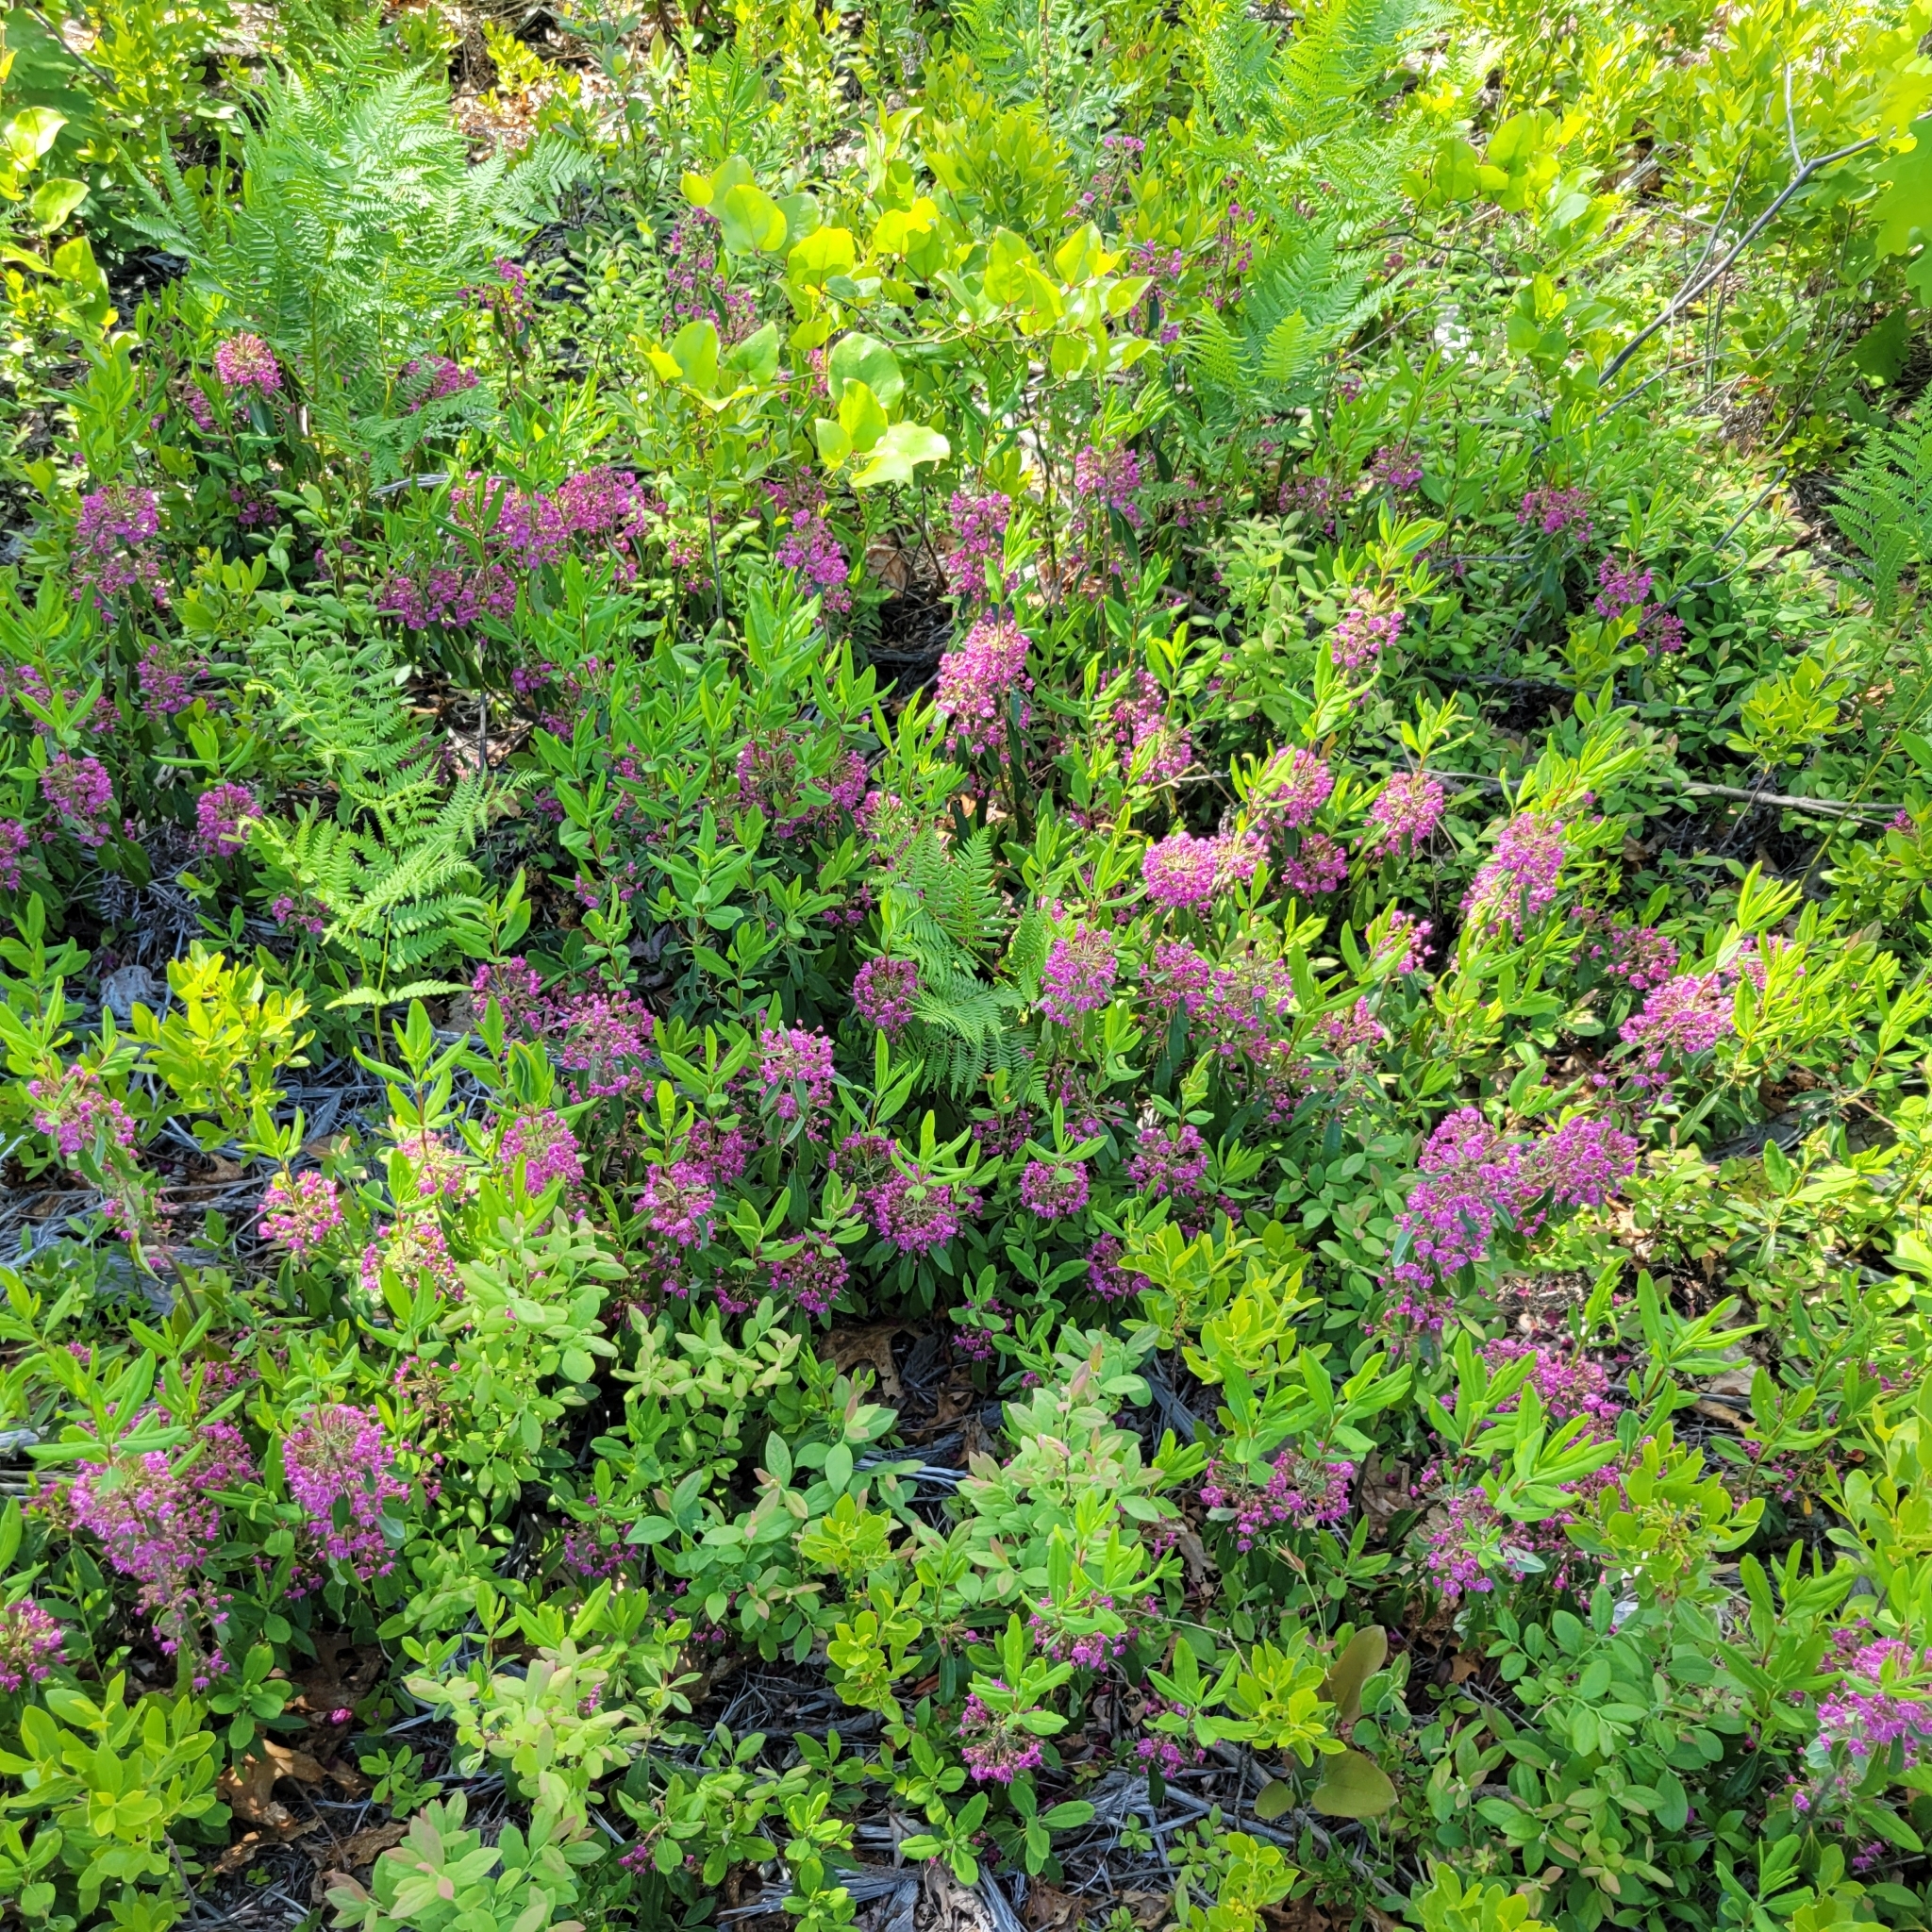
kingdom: Plantae
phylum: Tracheophyta
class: Magnoliopsida
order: Ericales
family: Ericaceae
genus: Kalmia
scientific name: Kalmia angustifolia
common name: Sheep-laurel
